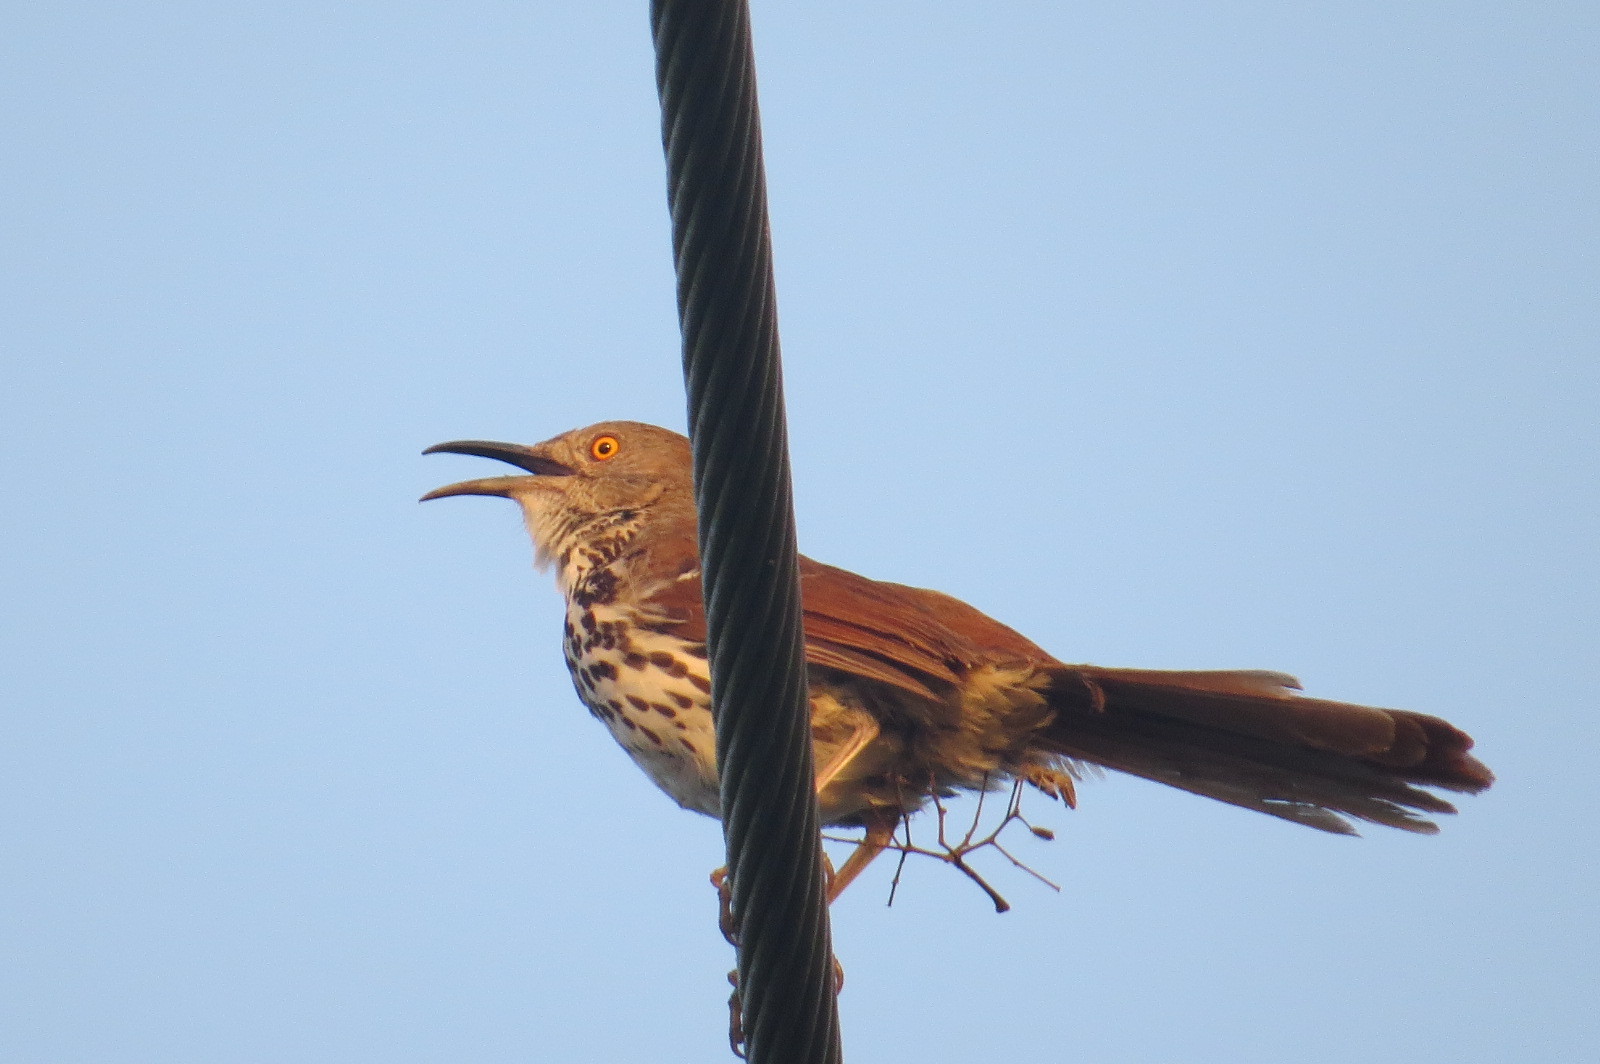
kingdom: Animalia
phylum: Chordata
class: Aves
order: Passeriformes
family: Mimidae
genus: Toxostoma
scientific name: Toxostoma longirostre
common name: Long-billed thrasher
